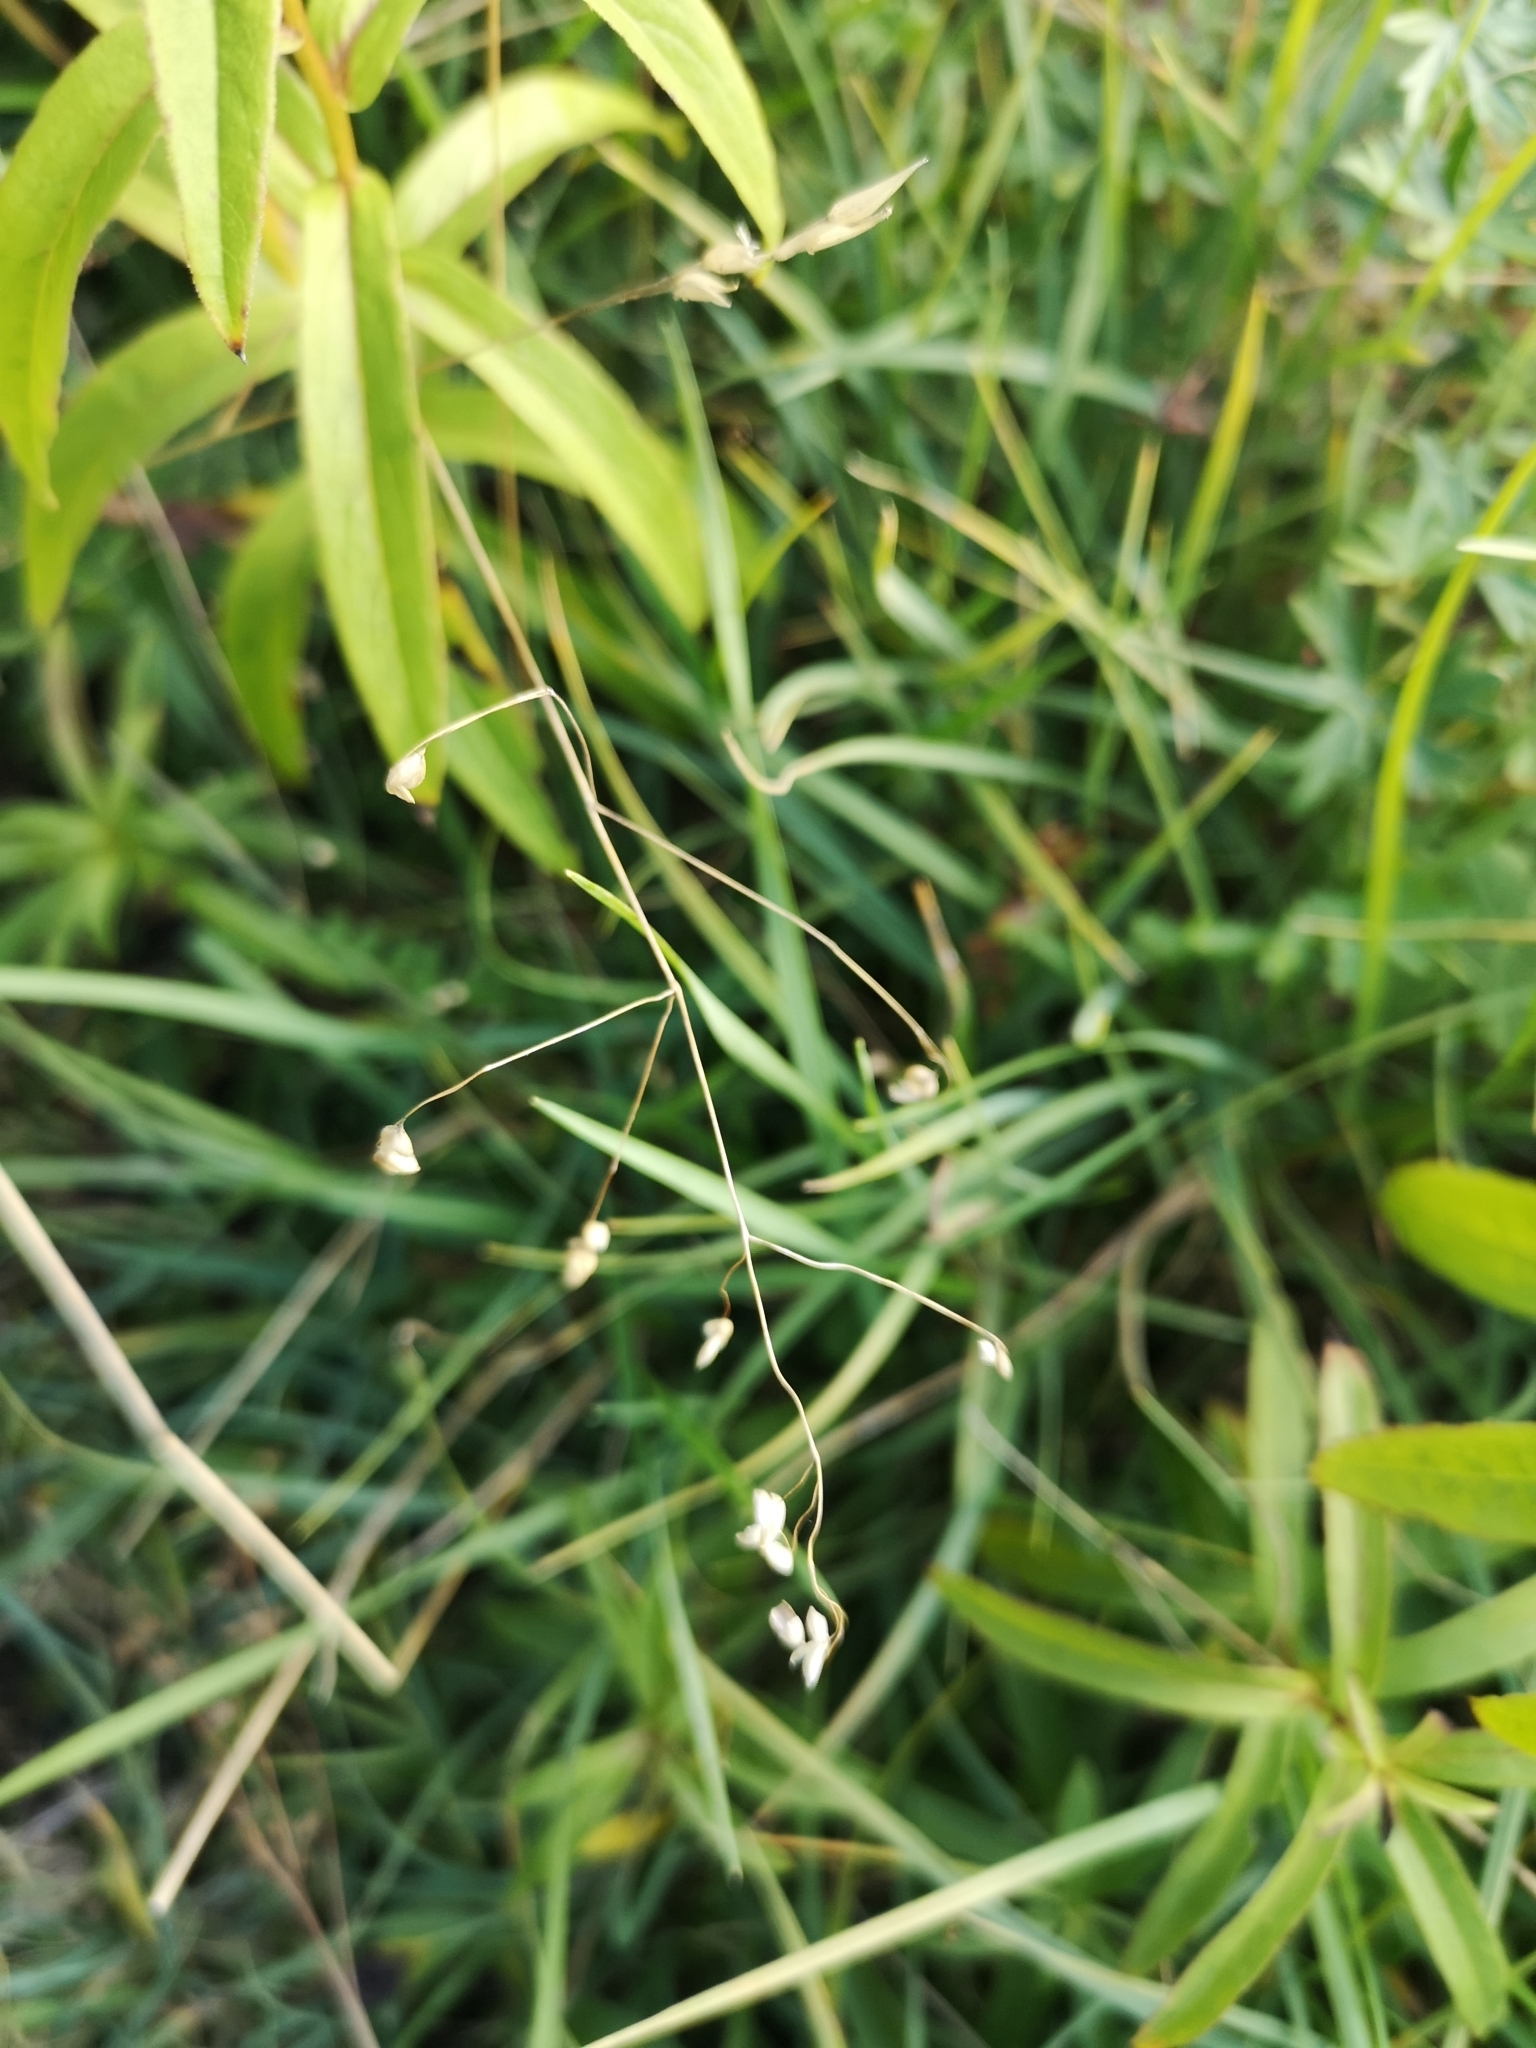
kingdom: Plantae
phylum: Tracheophyta
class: Liliopsida
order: Poales
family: Poaceae
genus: Briza
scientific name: Briza media
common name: Quaking grass
